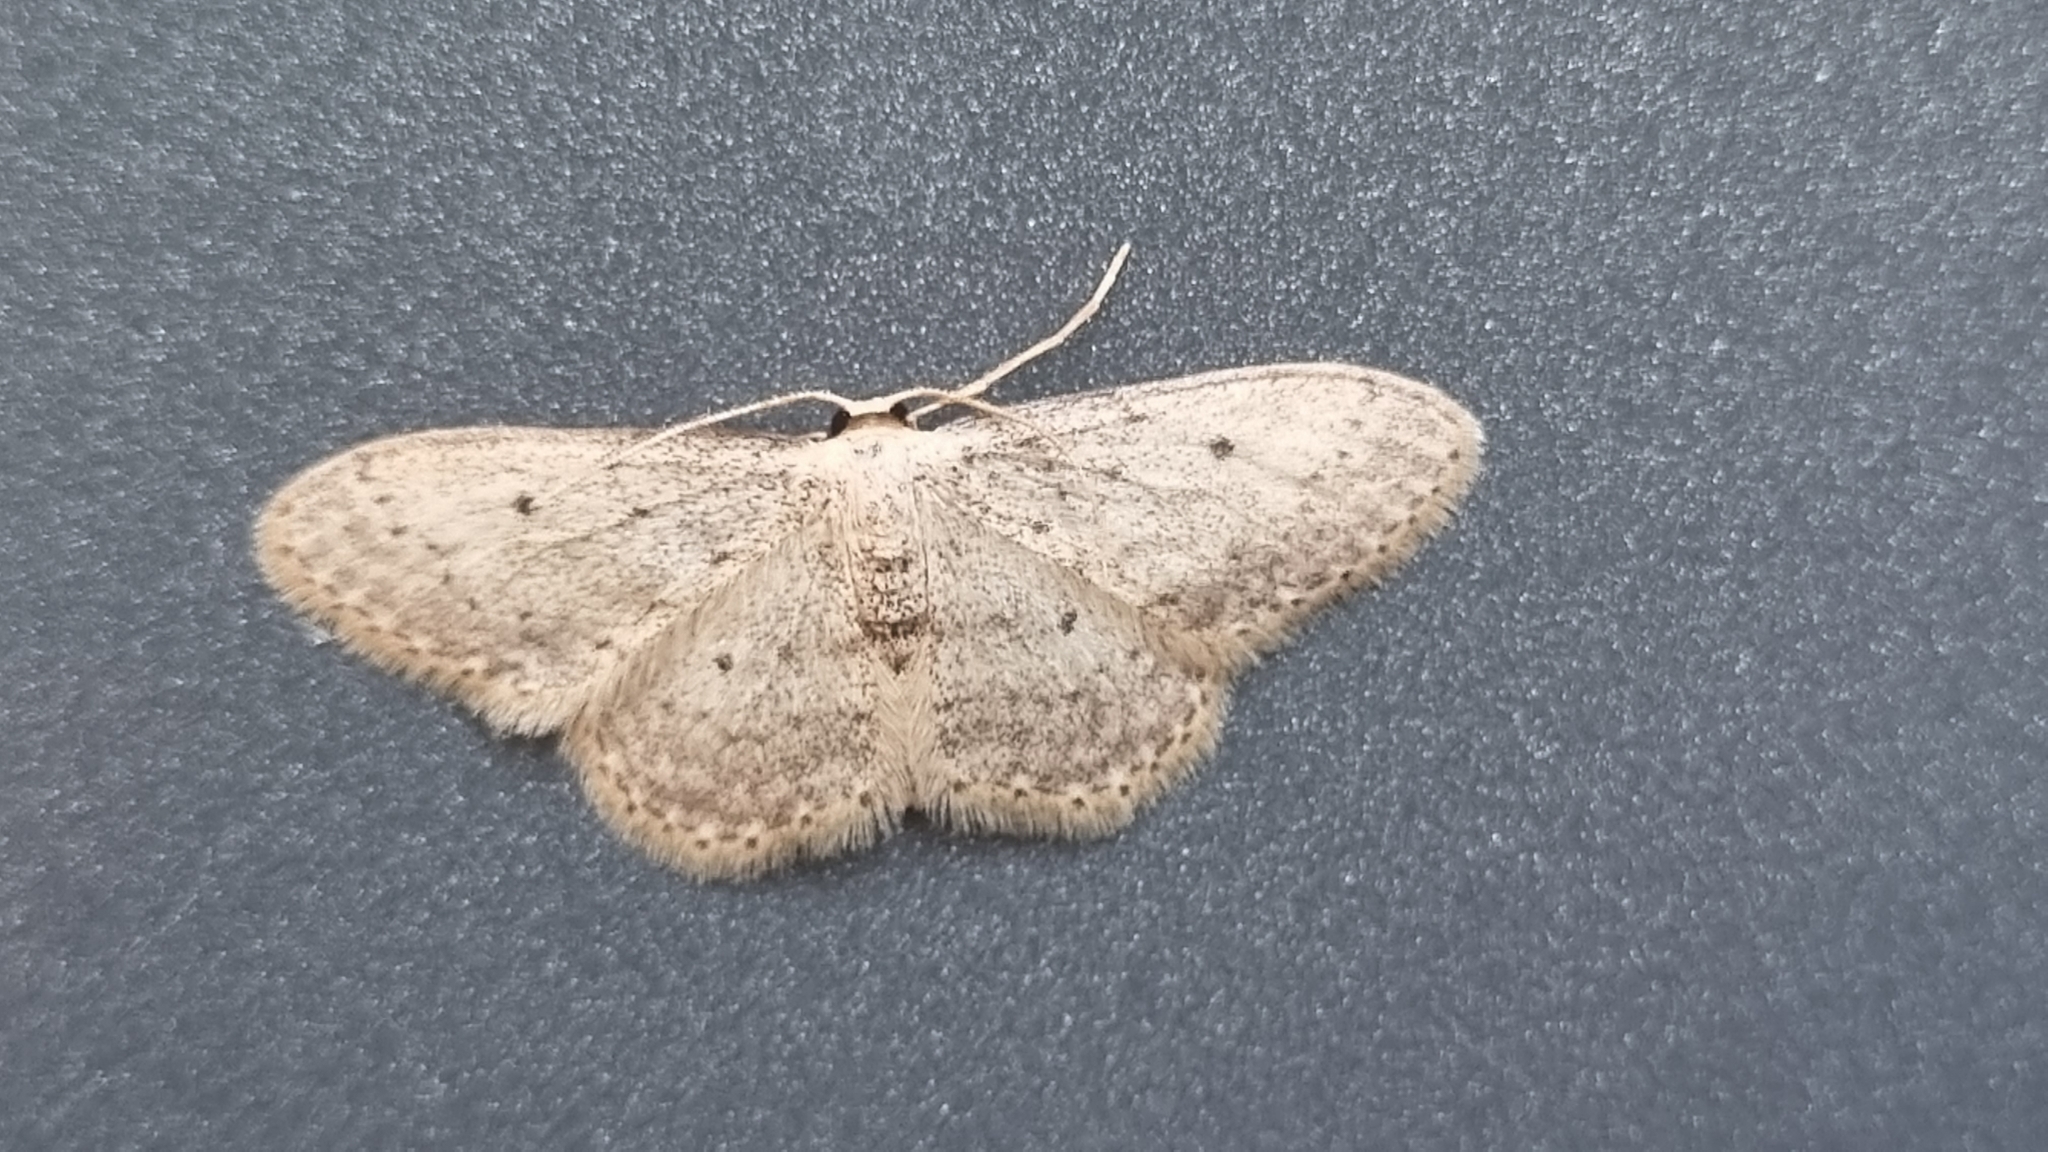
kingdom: Animalia
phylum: Arthropoda
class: Insecta
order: Lepidoptera
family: Geometridae
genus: Idaea
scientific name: Idaea seriata
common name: Small dusty wave
